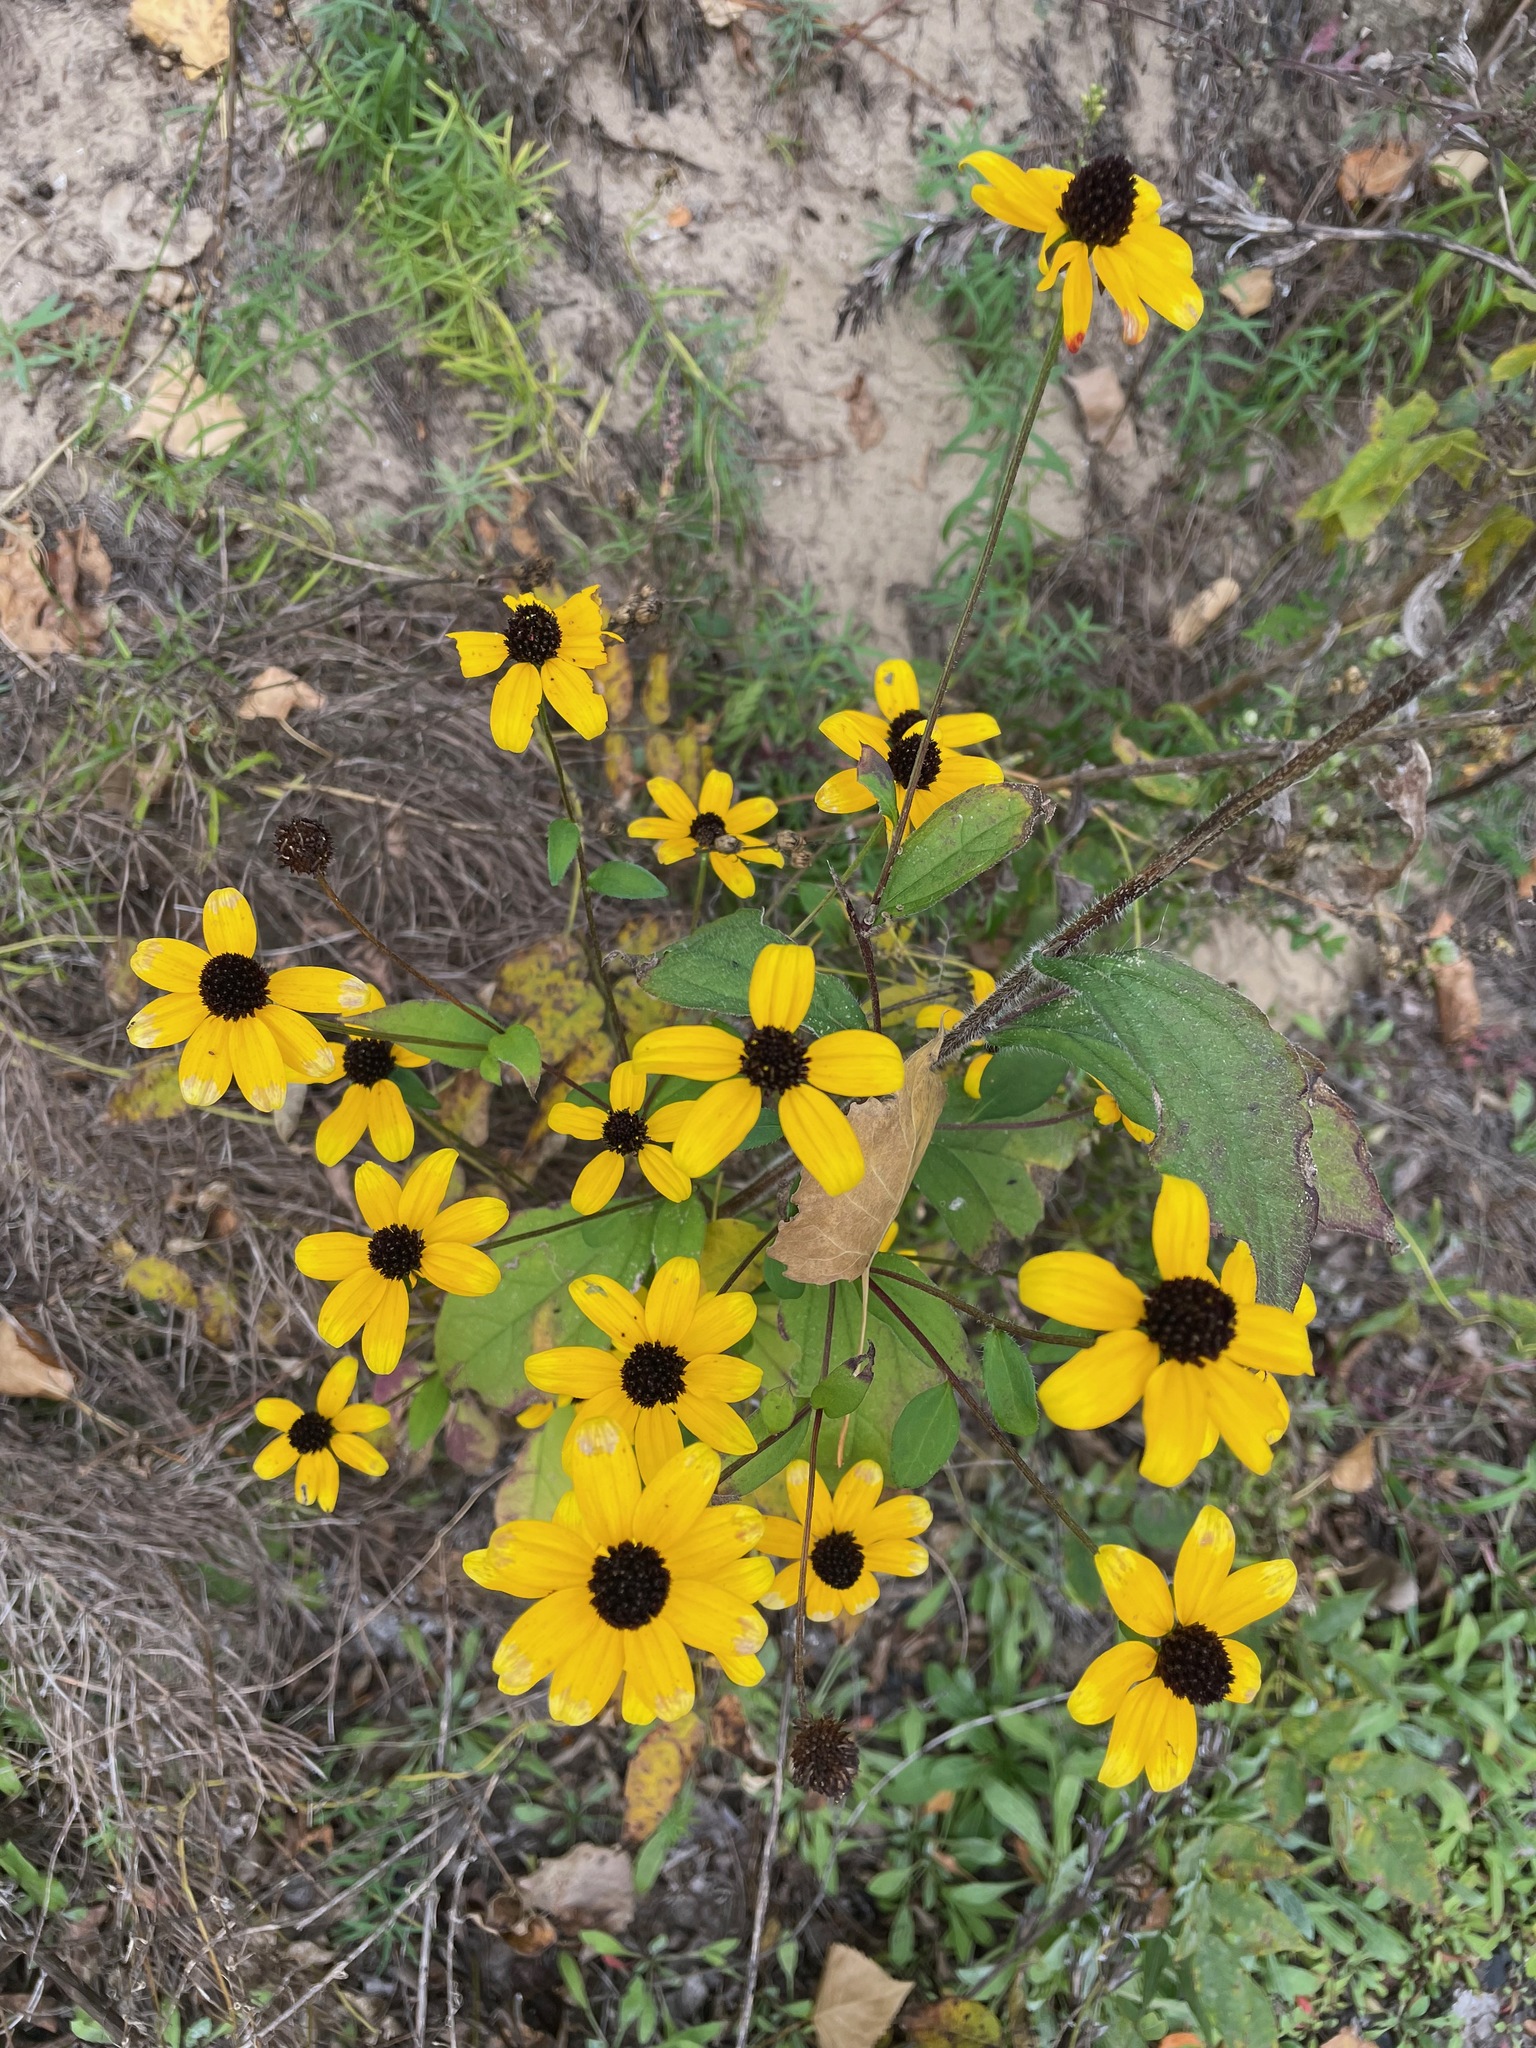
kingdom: Plantae
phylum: Tracheophyta
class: Magnoliopsida
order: Asterales
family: Asteraceae
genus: Rudbeckia
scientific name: Rudbeckia triloba
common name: Thin-leaved coneflower
